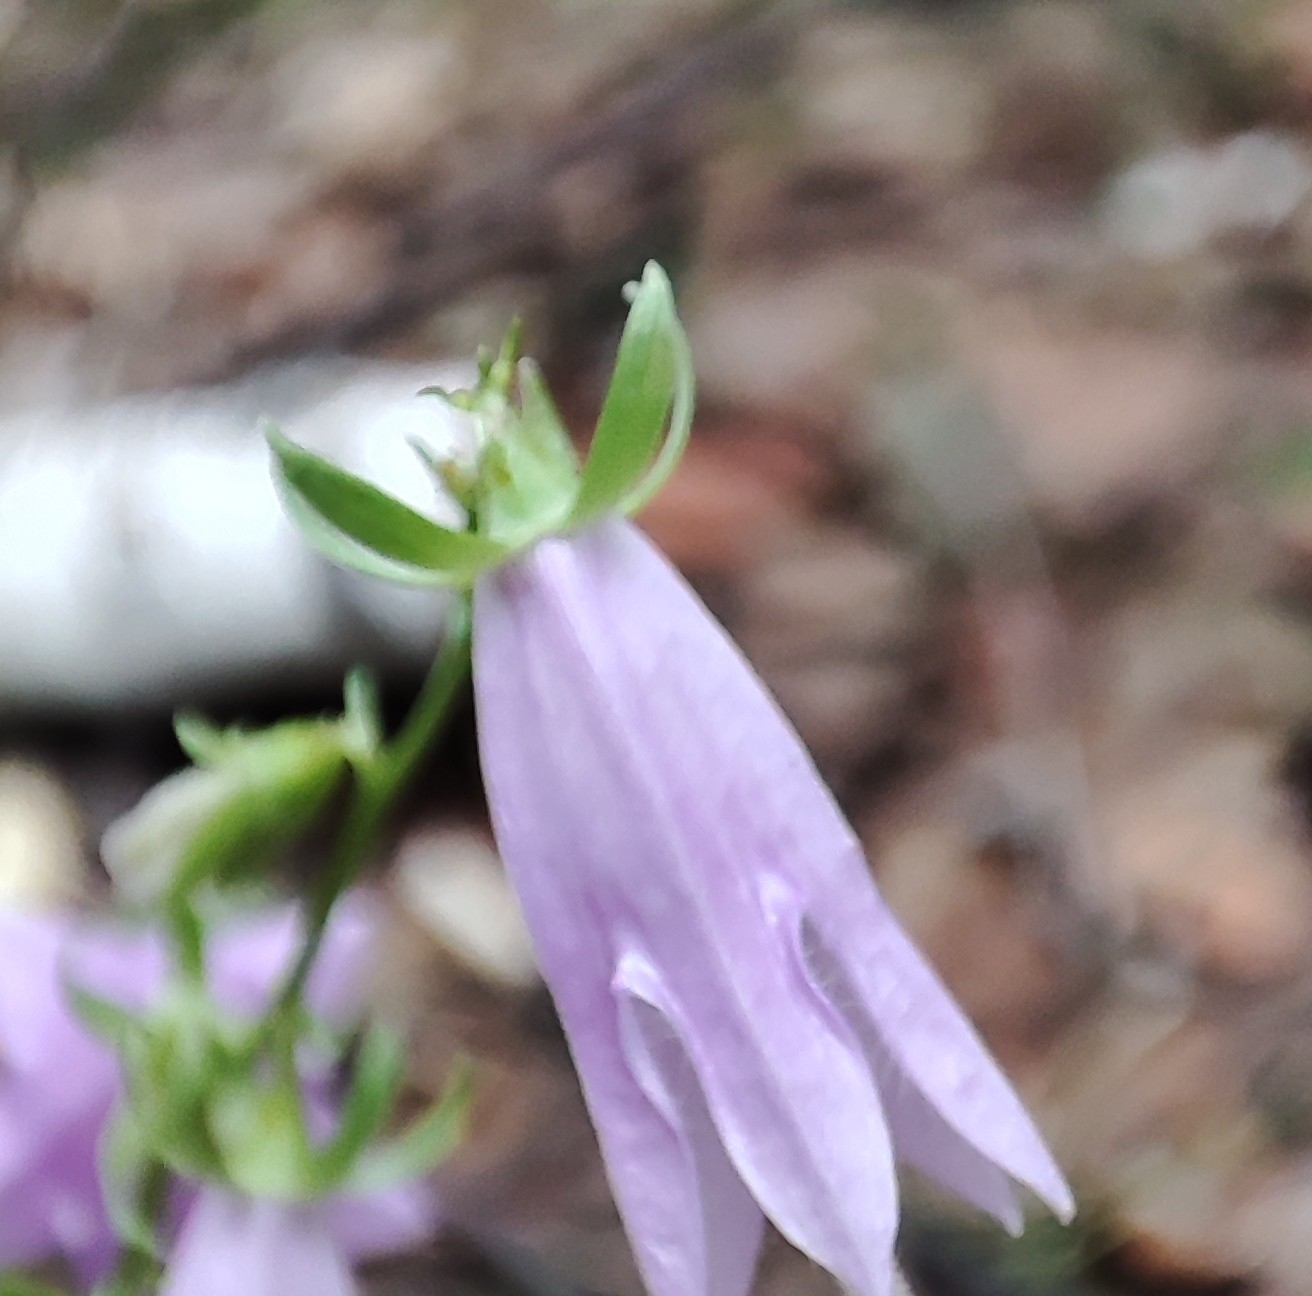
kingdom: Plantae
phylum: Tracheophyta
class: Magnoliopsida
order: Asterales
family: Campanulaceae
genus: Campanula
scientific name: Campanula rapunculoides
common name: Creeping bellflower
